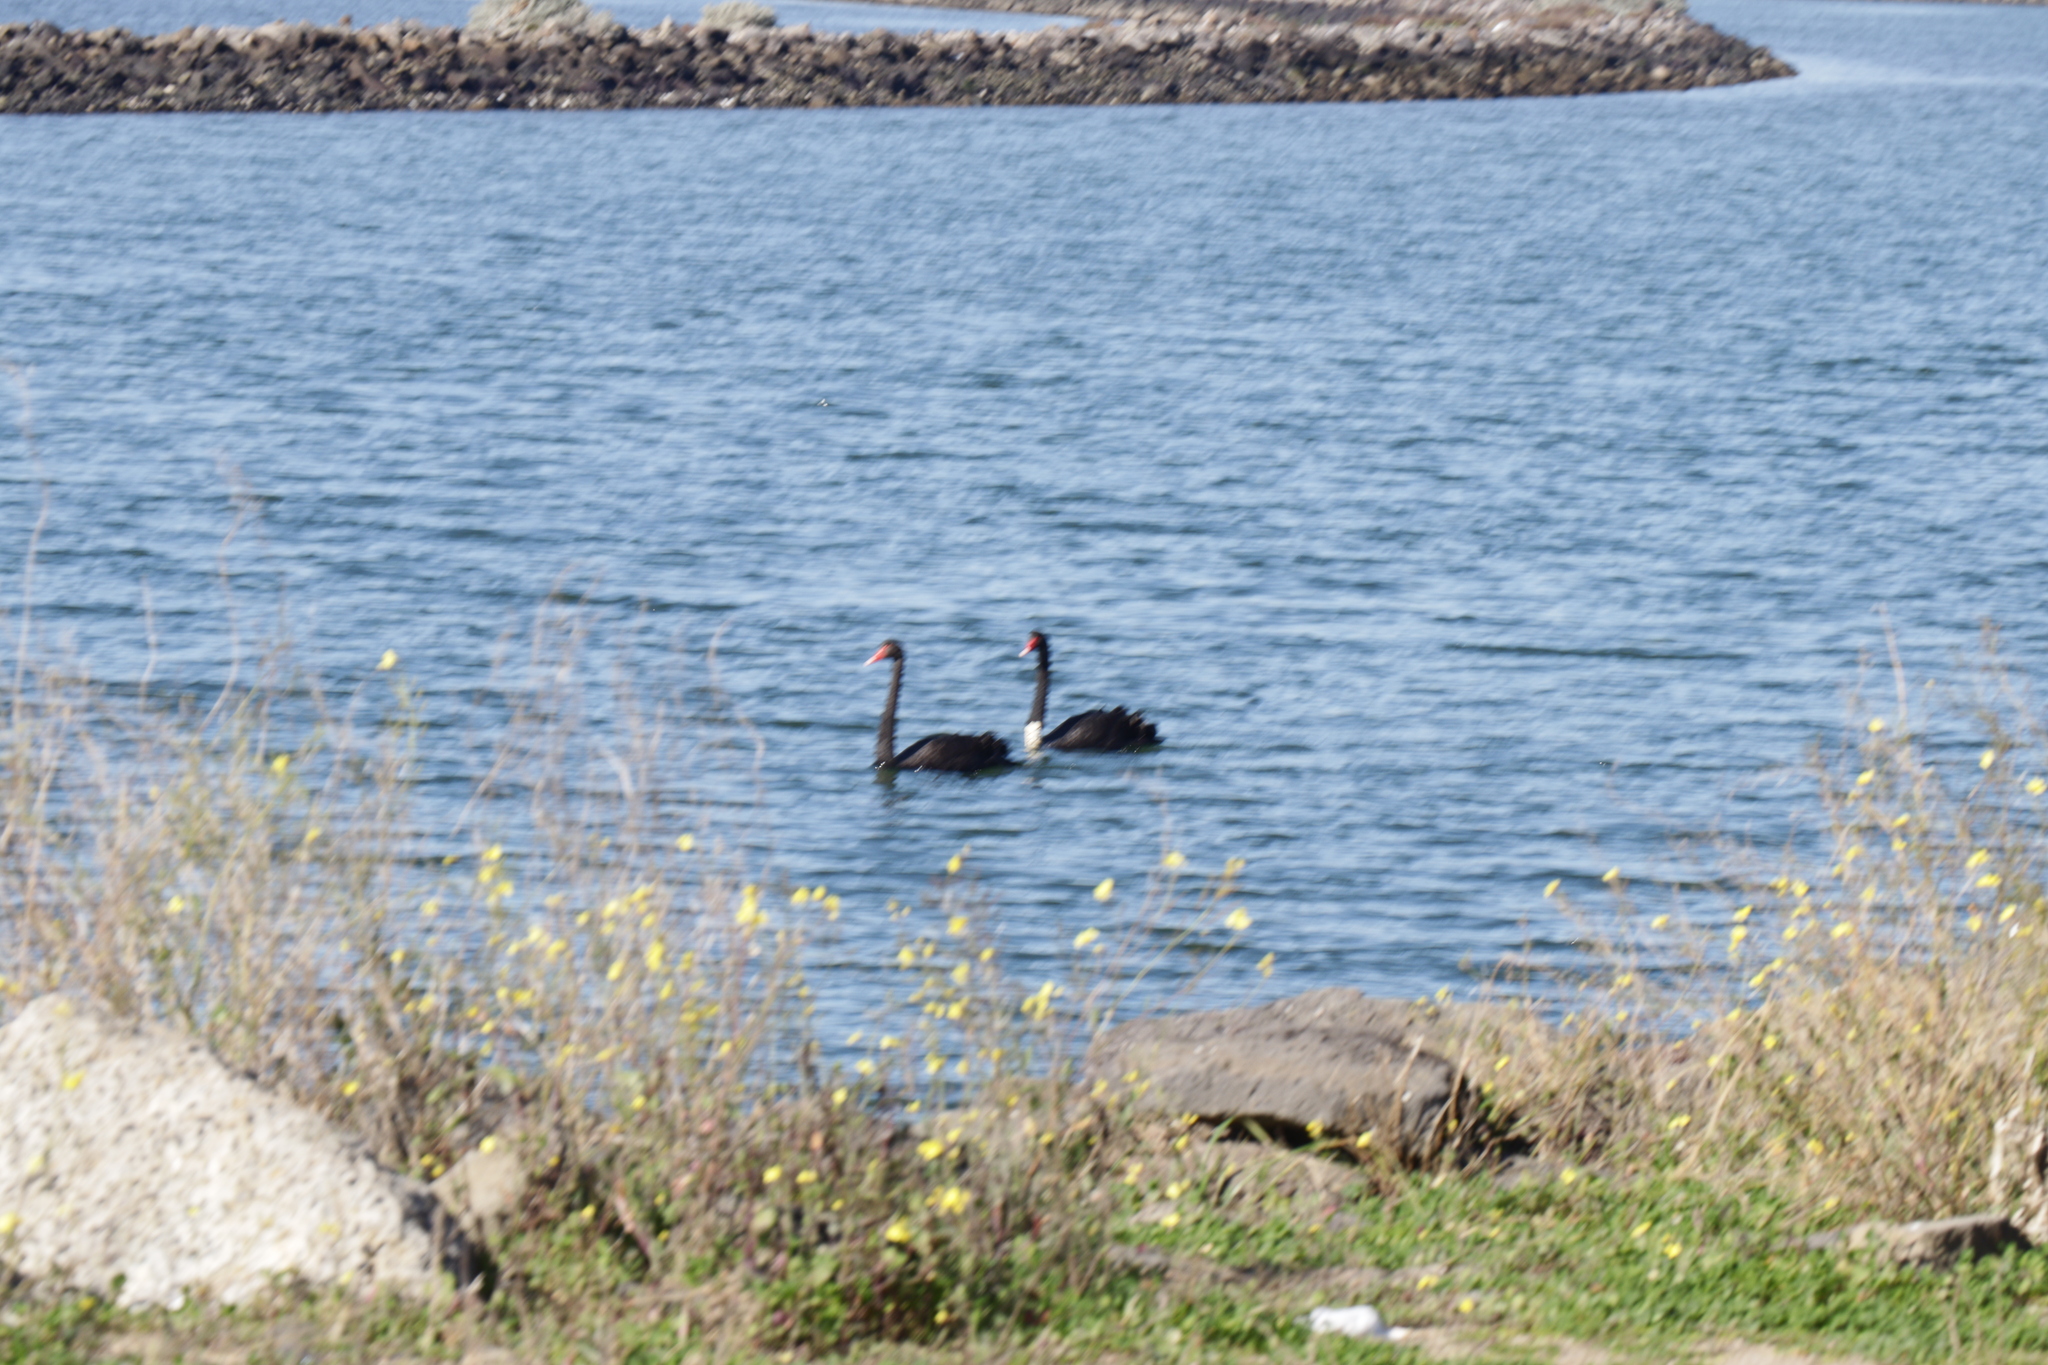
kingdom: Animalia
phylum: Chordata
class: Aves
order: Anseriformes
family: Anatidae
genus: Cygnus
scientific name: Cygnus atratus
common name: Black swan
